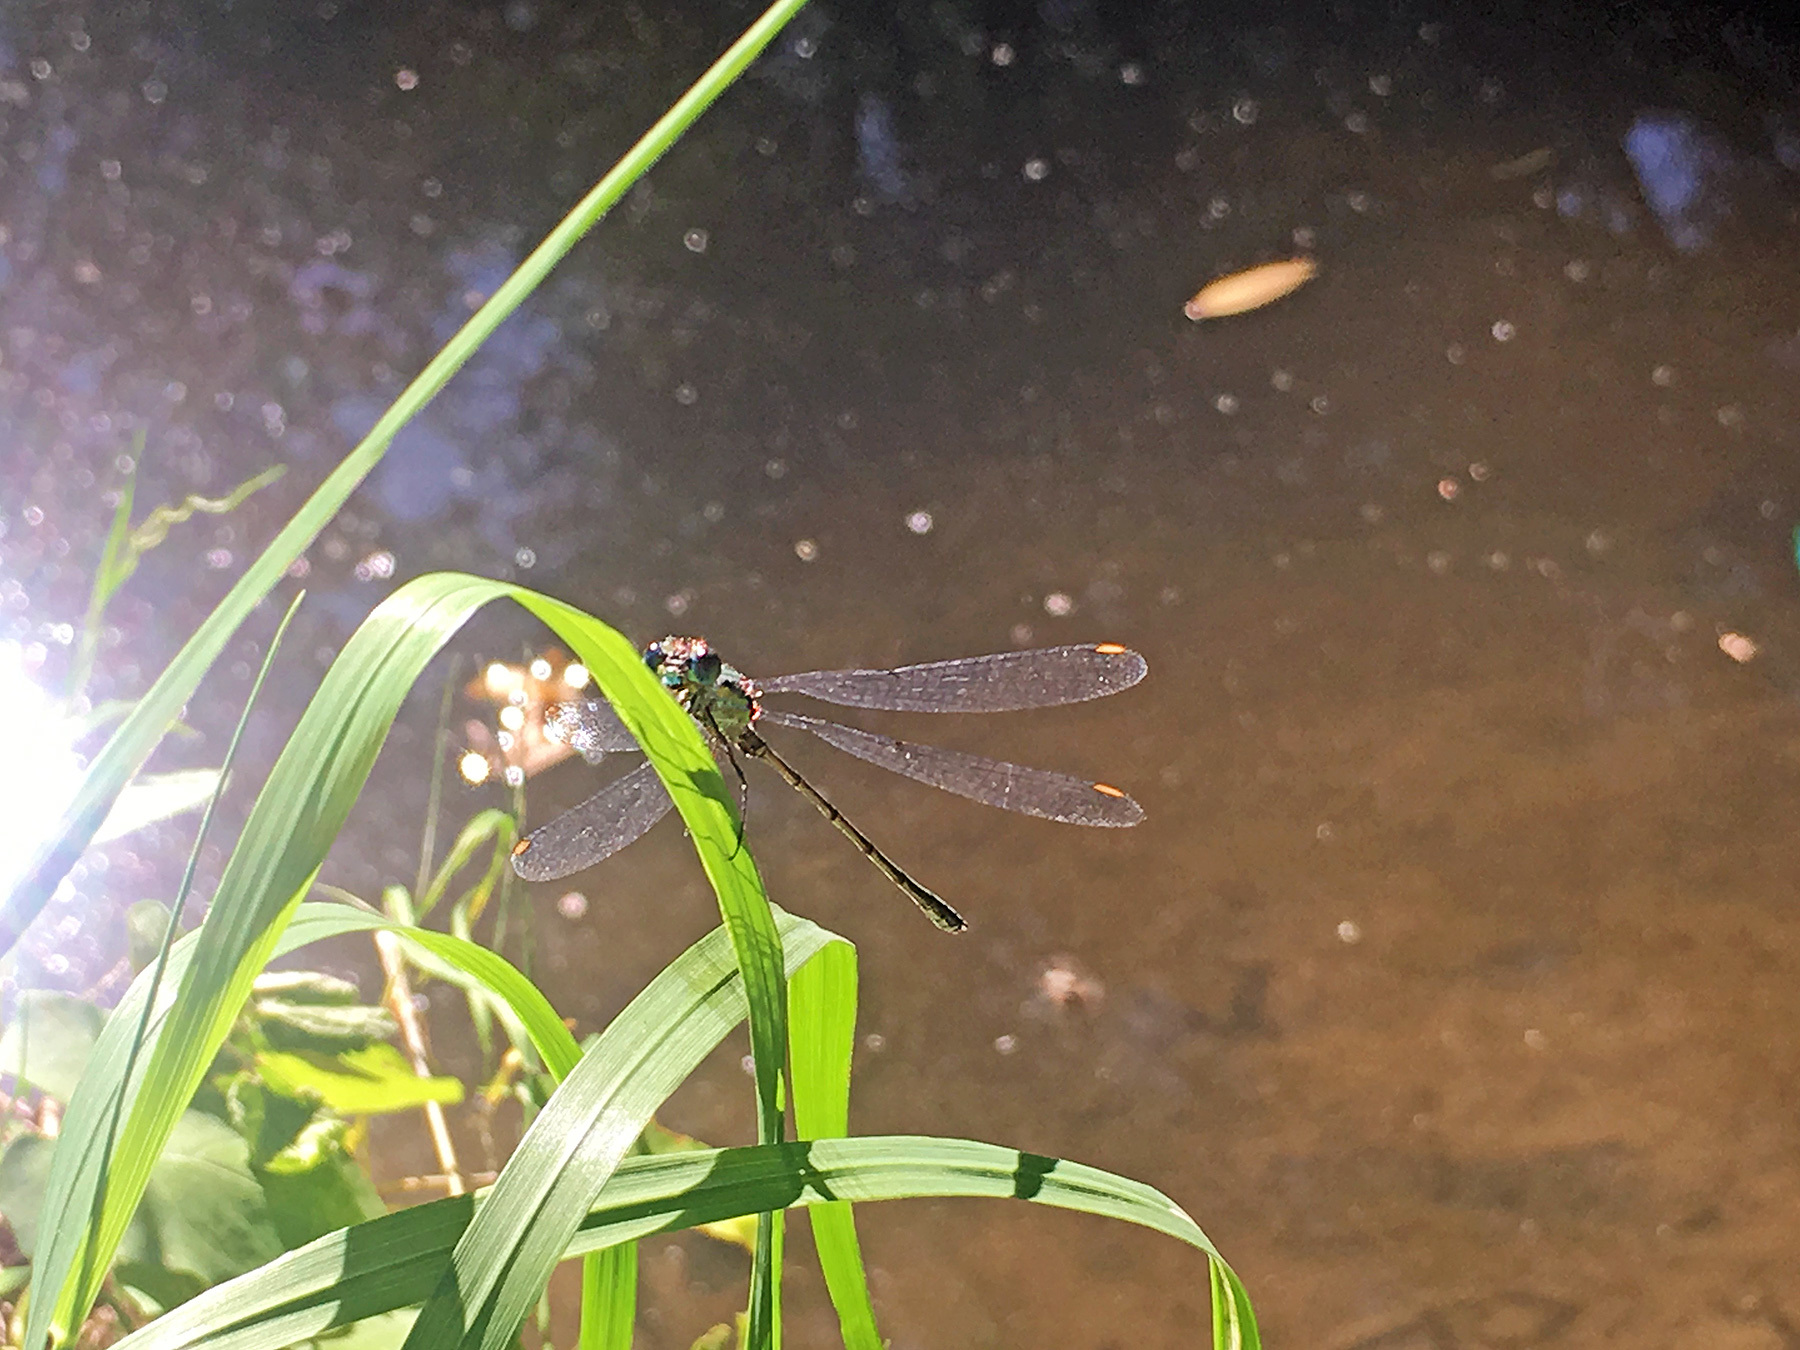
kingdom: Animalia
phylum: Arthropoda
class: Insecta
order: Odonata
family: Lestidae
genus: Chalcolestes
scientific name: Chalcolestes viridis
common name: Green emerald damselfly
